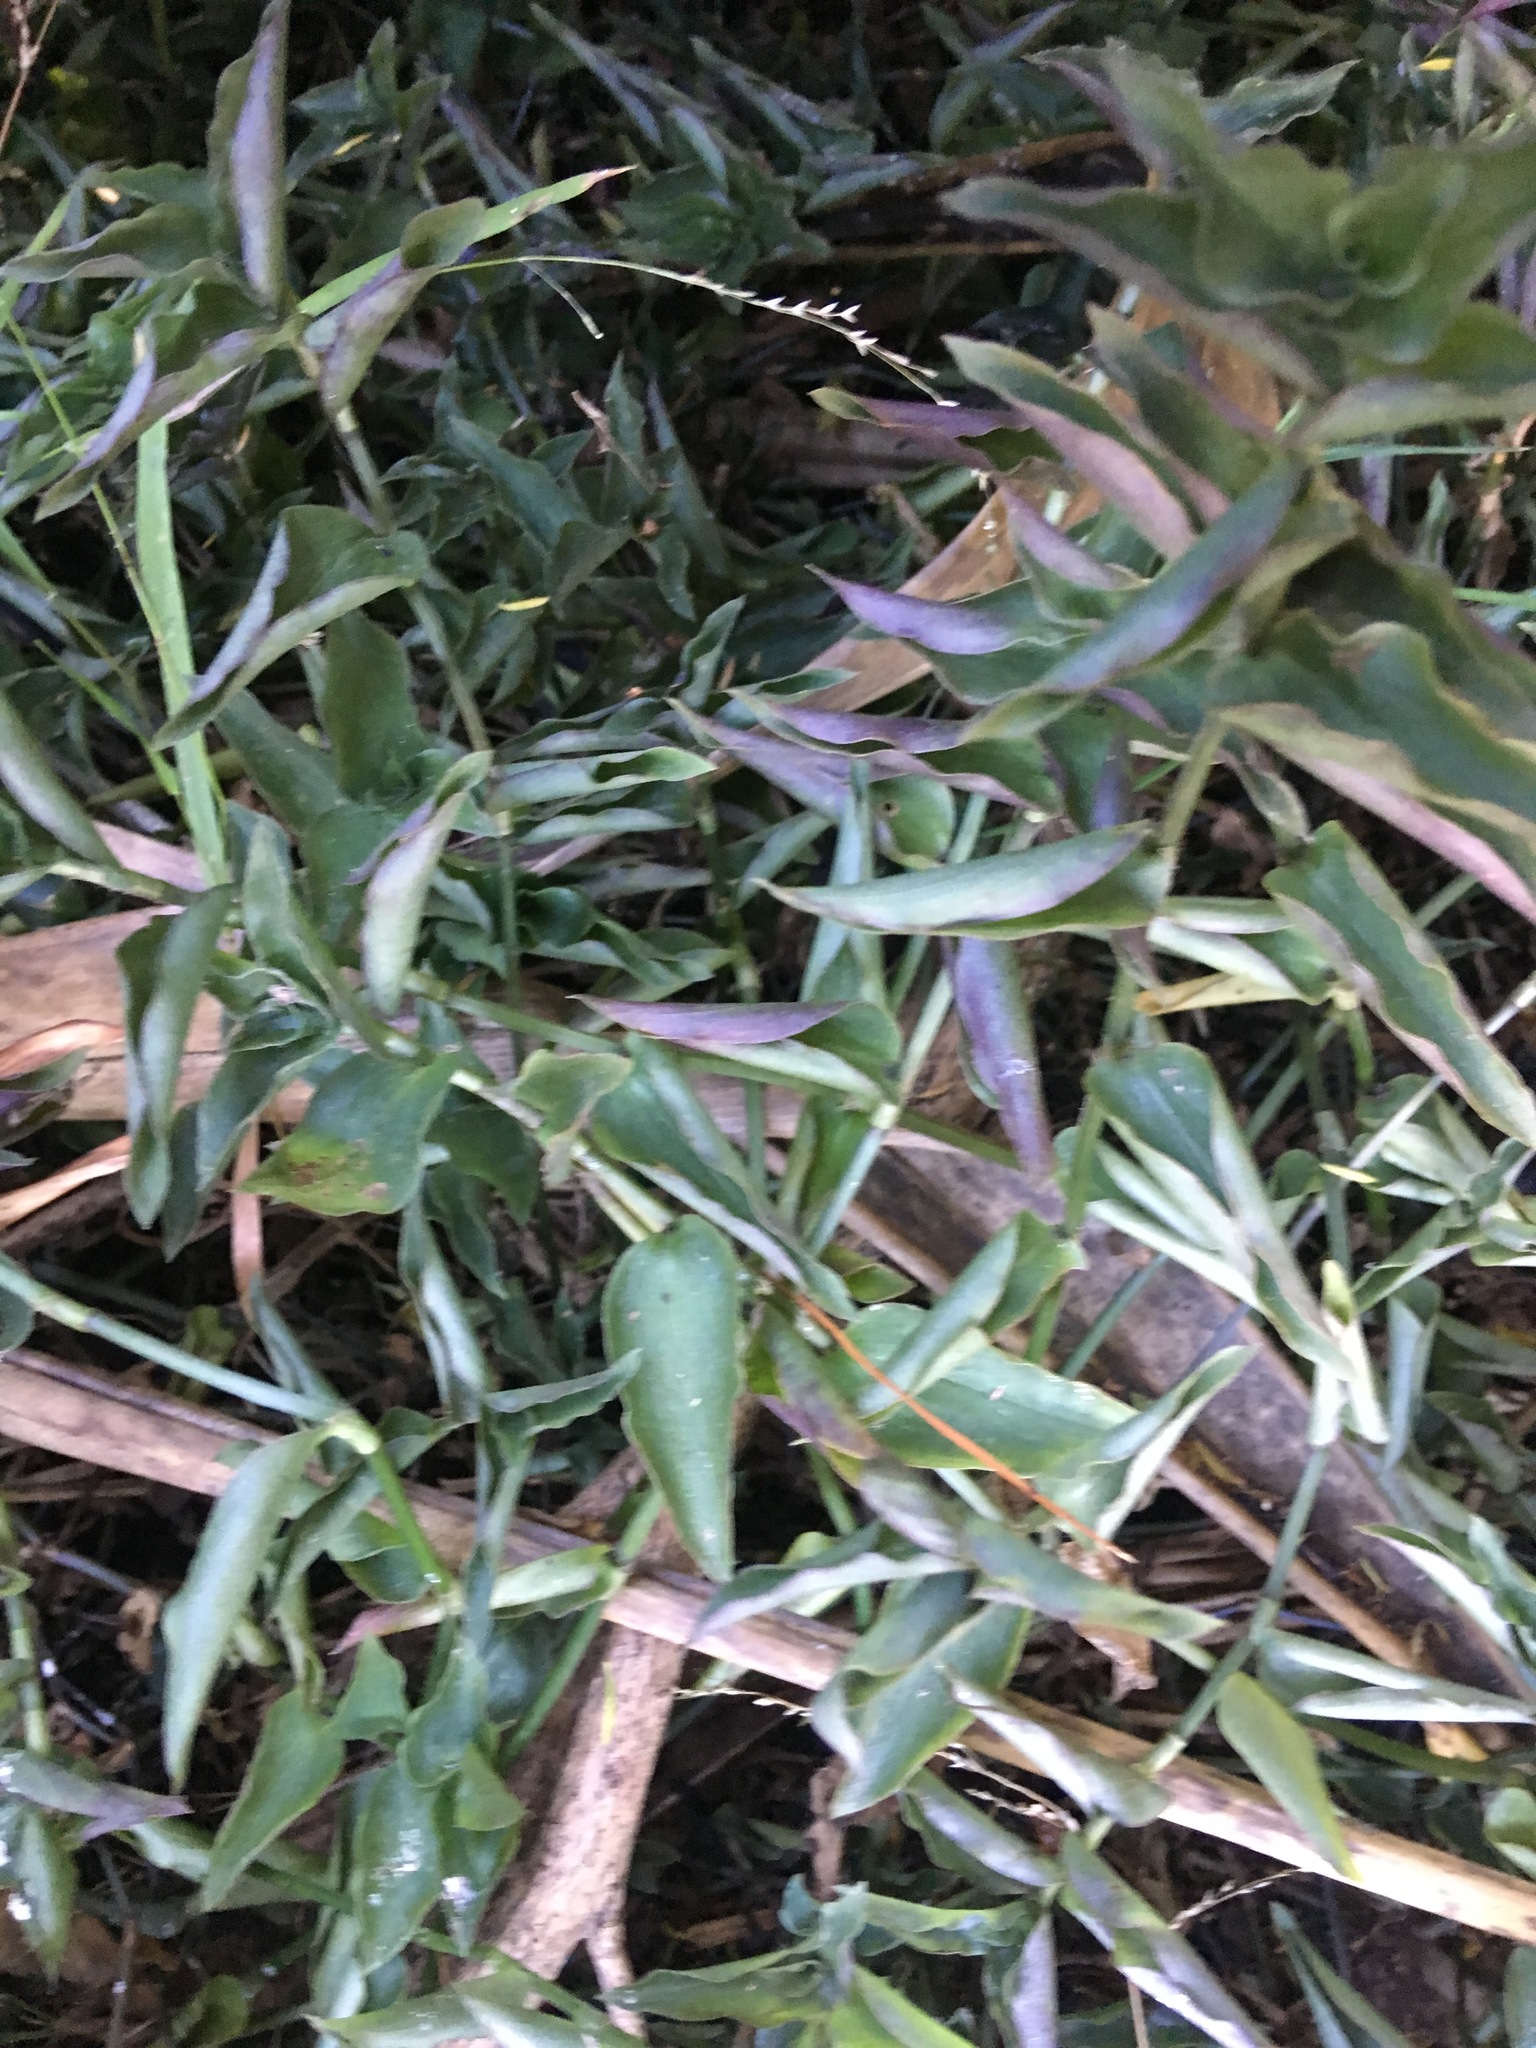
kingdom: Plantae
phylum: Tracheophyta
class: Liliopsida
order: Commelinales
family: Commelinaceae
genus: Tradescantia
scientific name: Tradescantia fluminensis
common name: Wandering-jew
